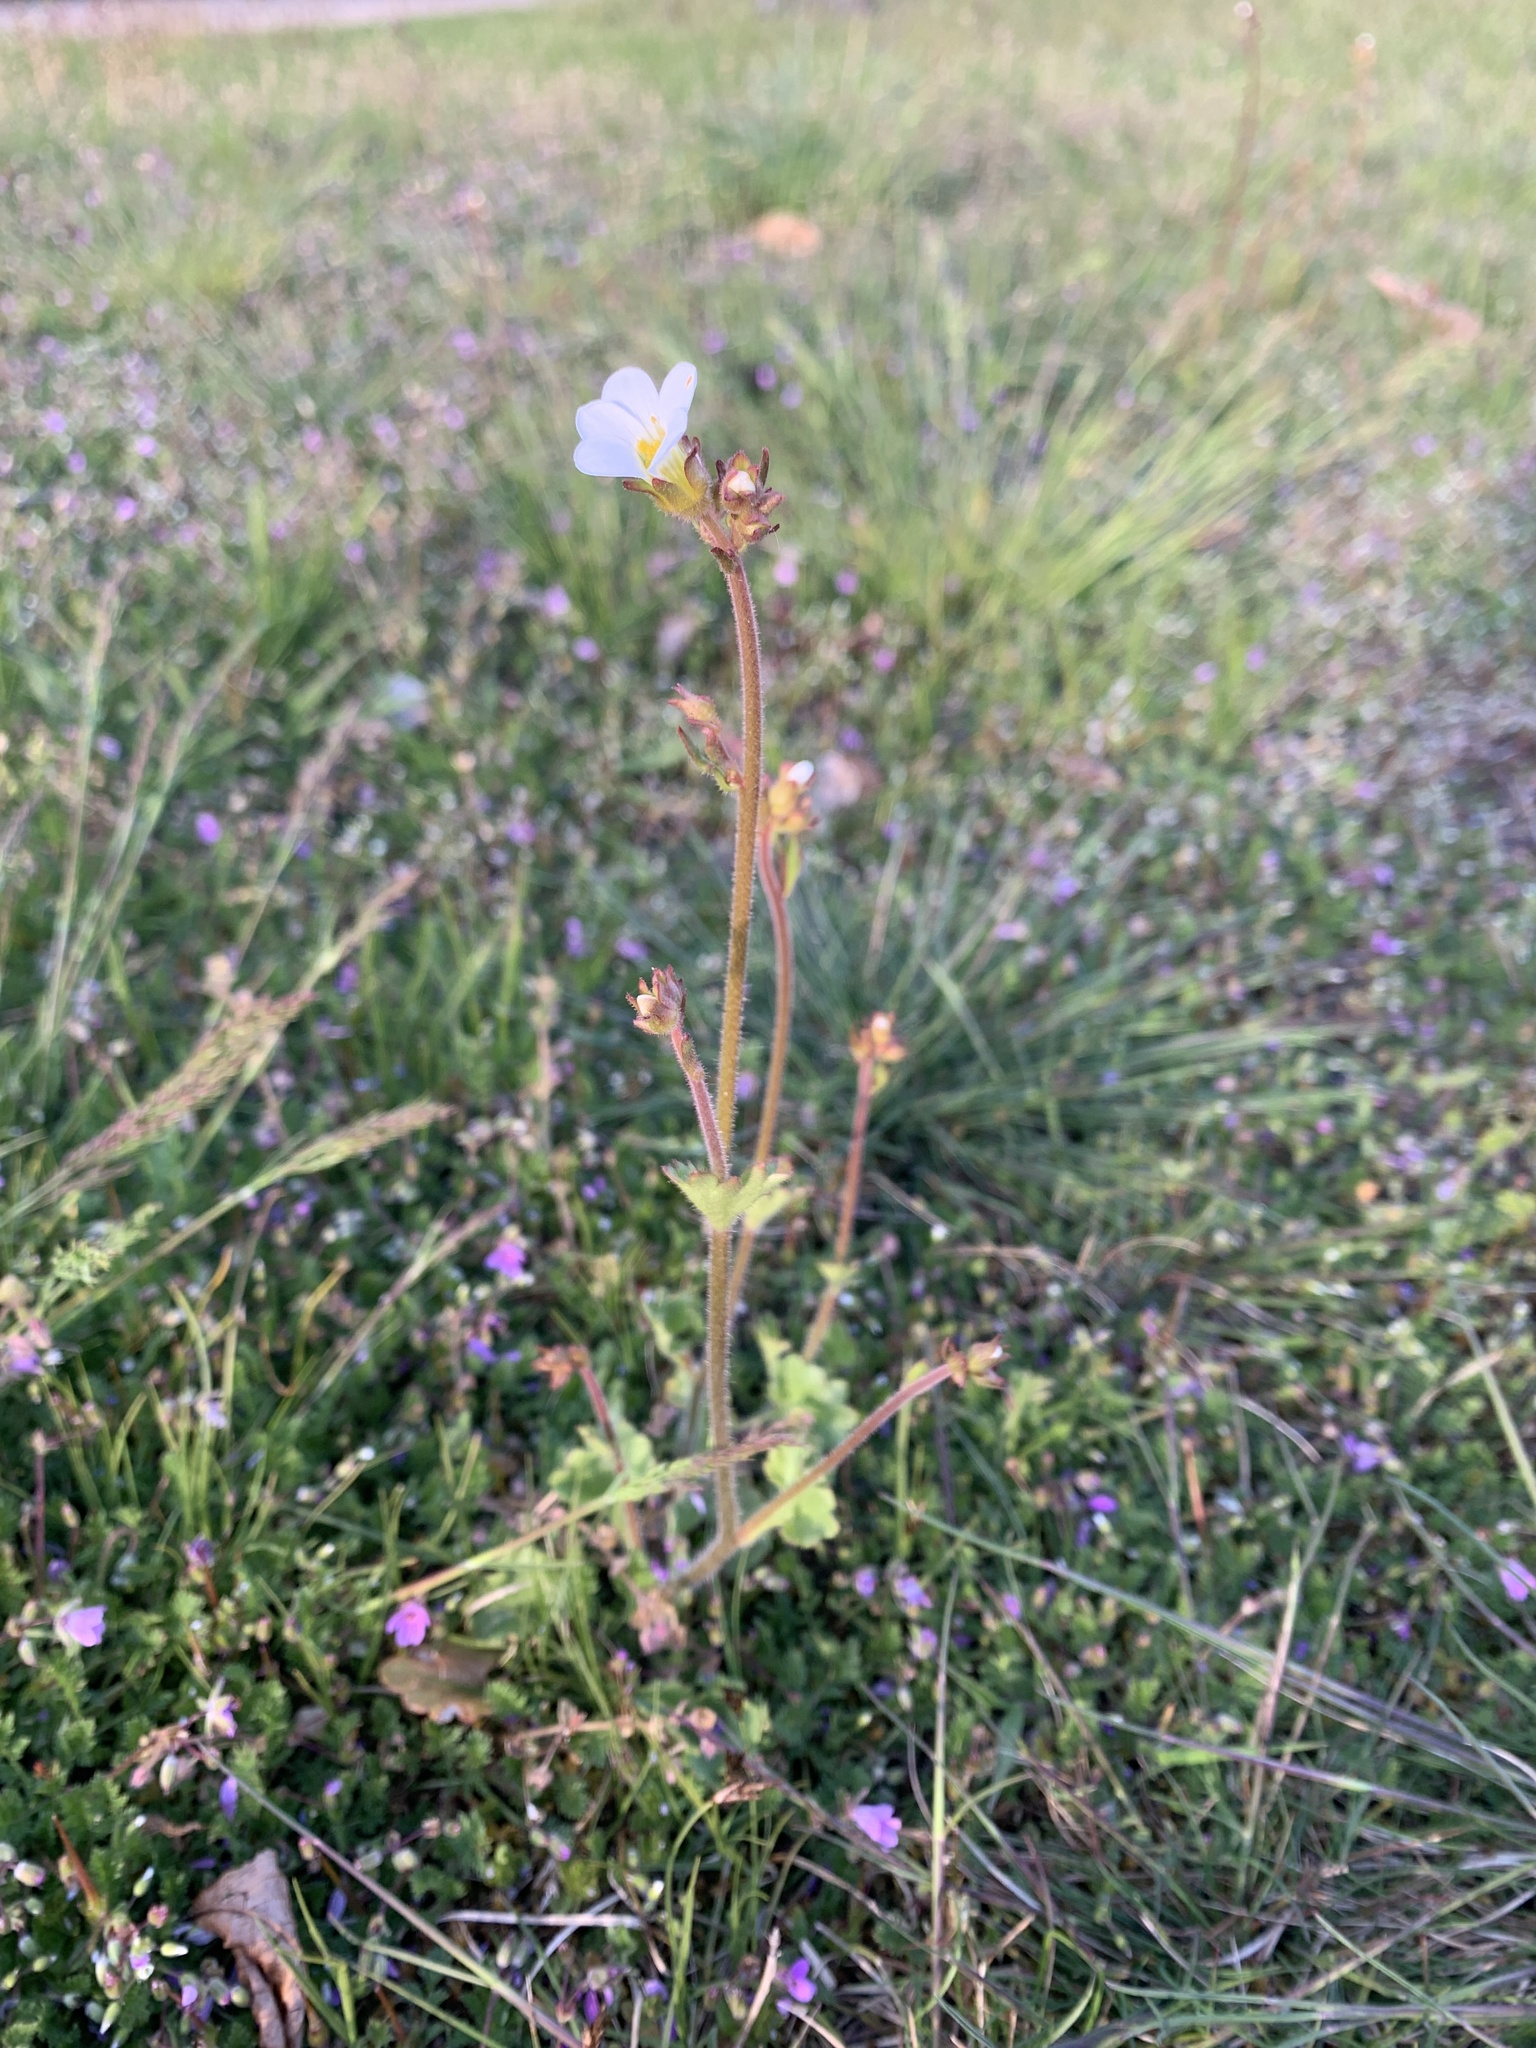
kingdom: Plantae
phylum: Tracheophyta
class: Magnoliopsida
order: Saxifragales
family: Saxifragaceae
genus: Saxifraga
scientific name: Saxifraga granulata
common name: Meadow saxifrage
